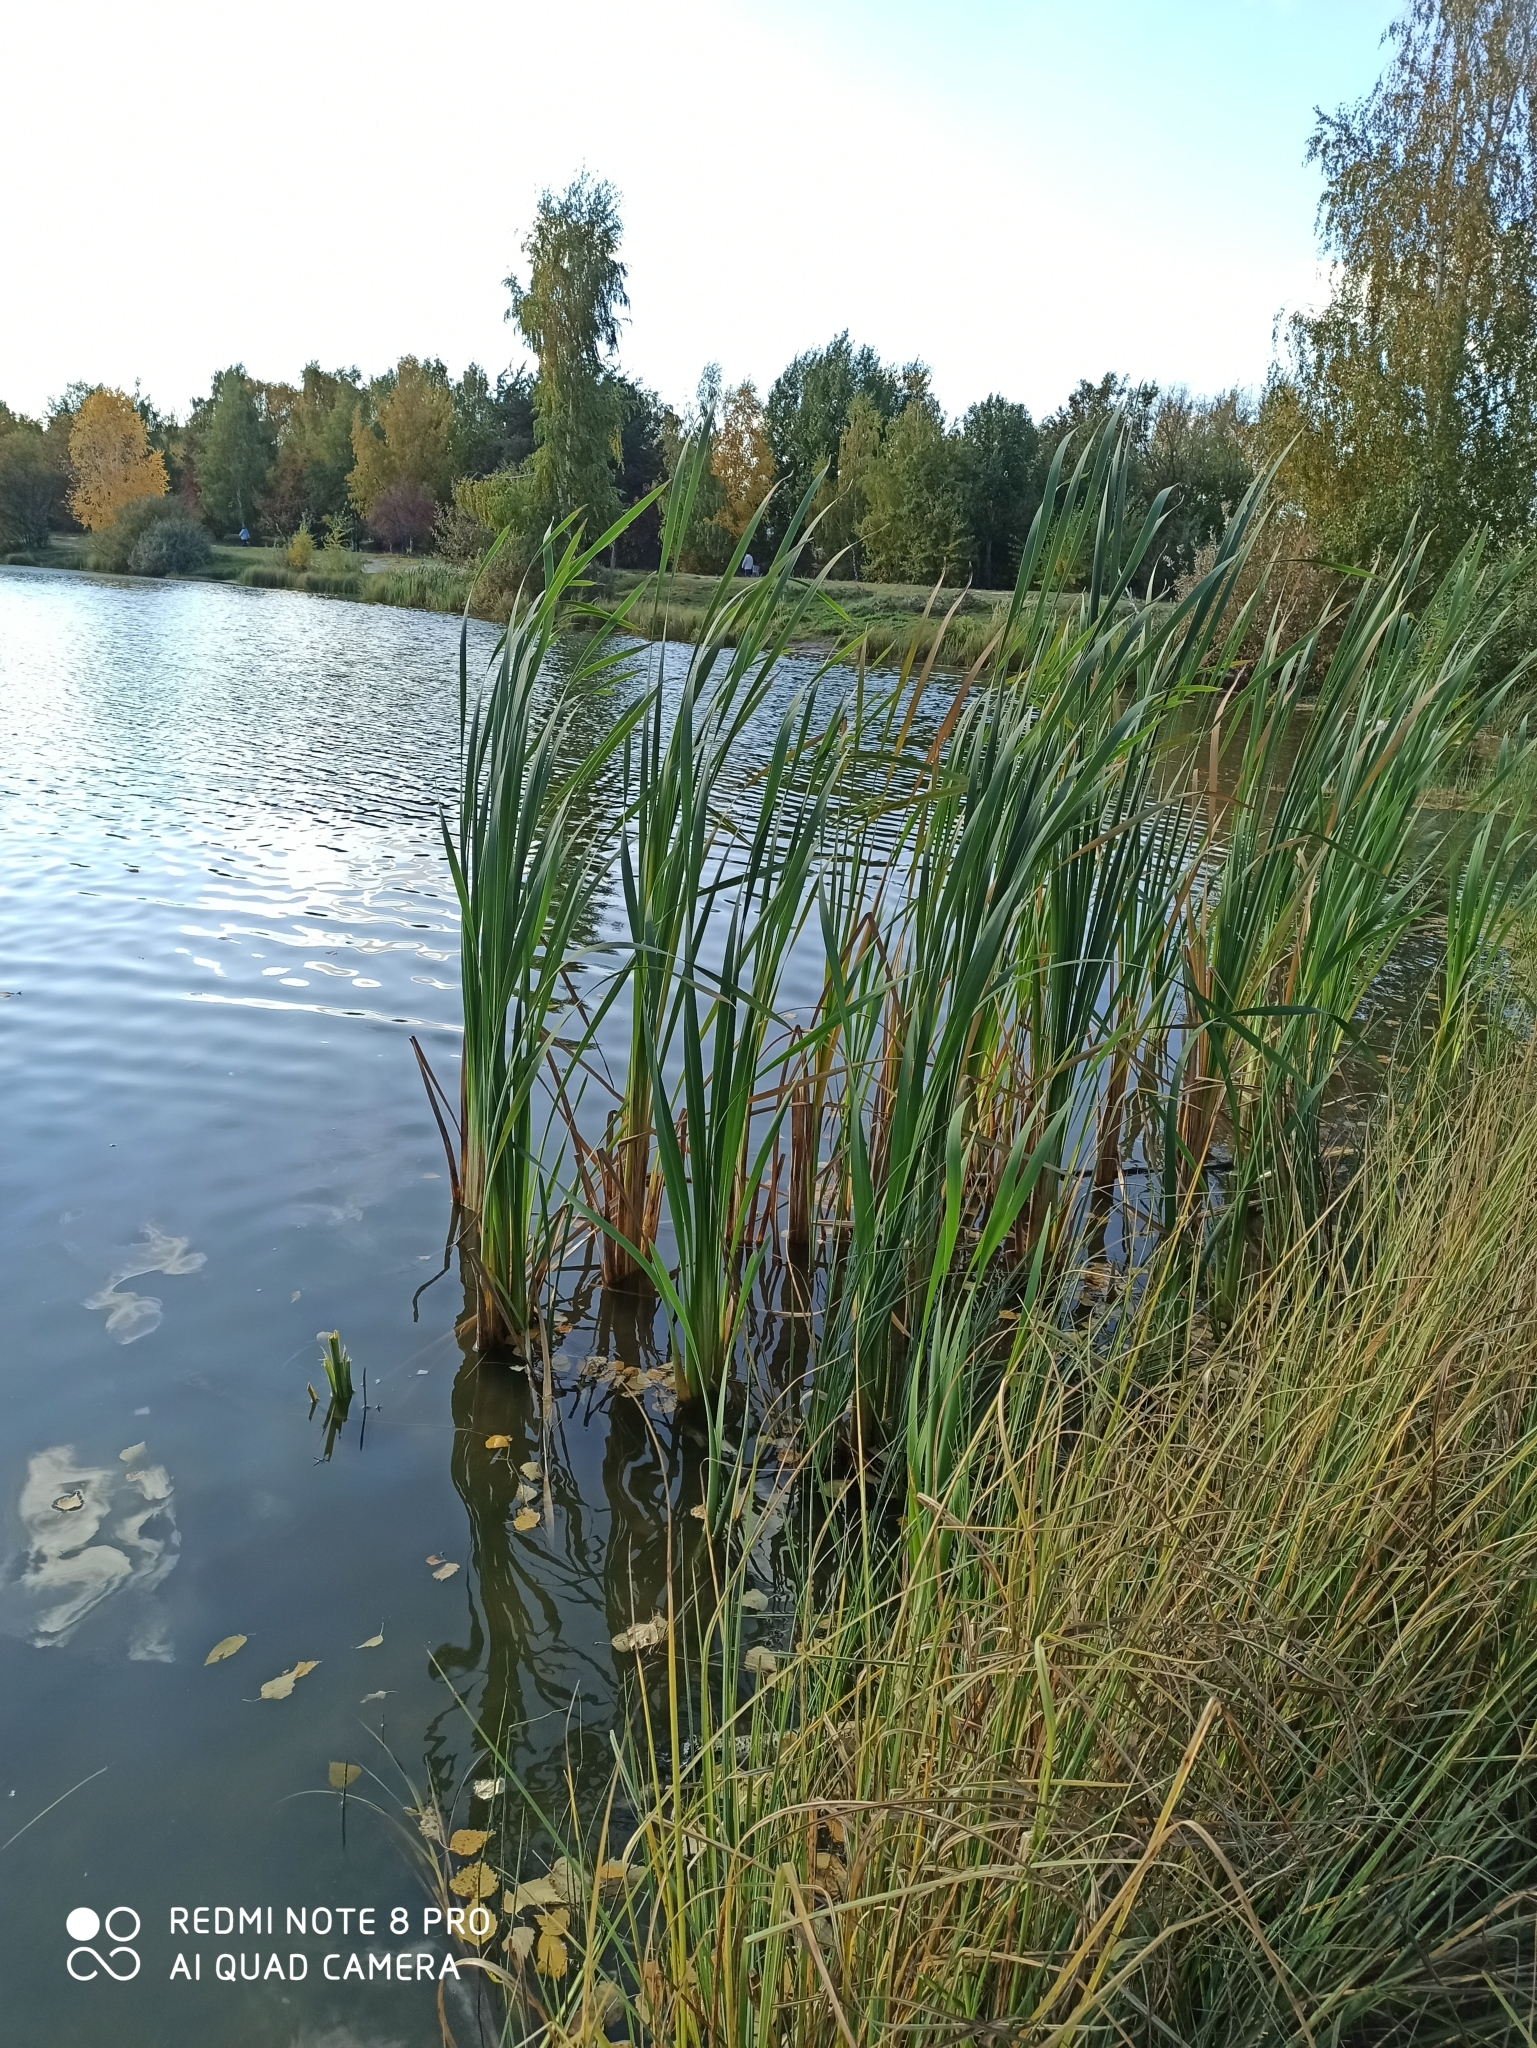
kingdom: Plantae
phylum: Tracheophyta
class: Liliopsida
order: Poales
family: Typhaceae
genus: Typha
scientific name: Typha latifolia
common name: Broadleaf cattail
